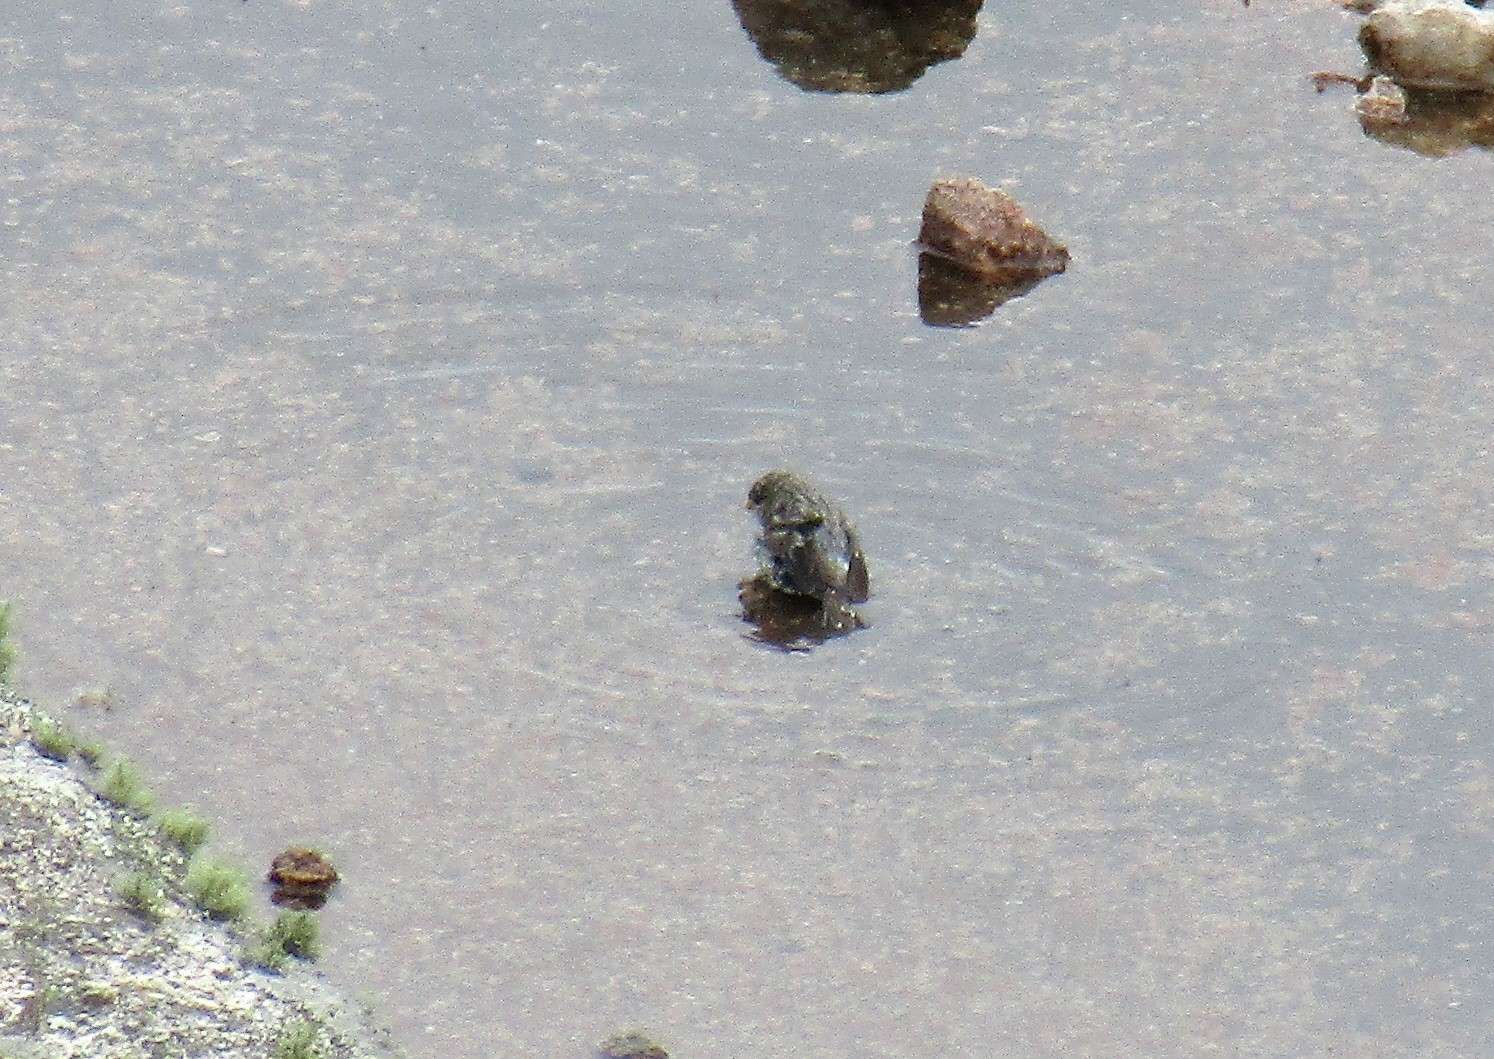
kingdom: Animalia
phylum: Chordata
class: Aves
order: Passeriformes
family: Thraupidae
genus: Catamenia
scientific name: Catamenia analis
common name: Band-tailed seedeater
